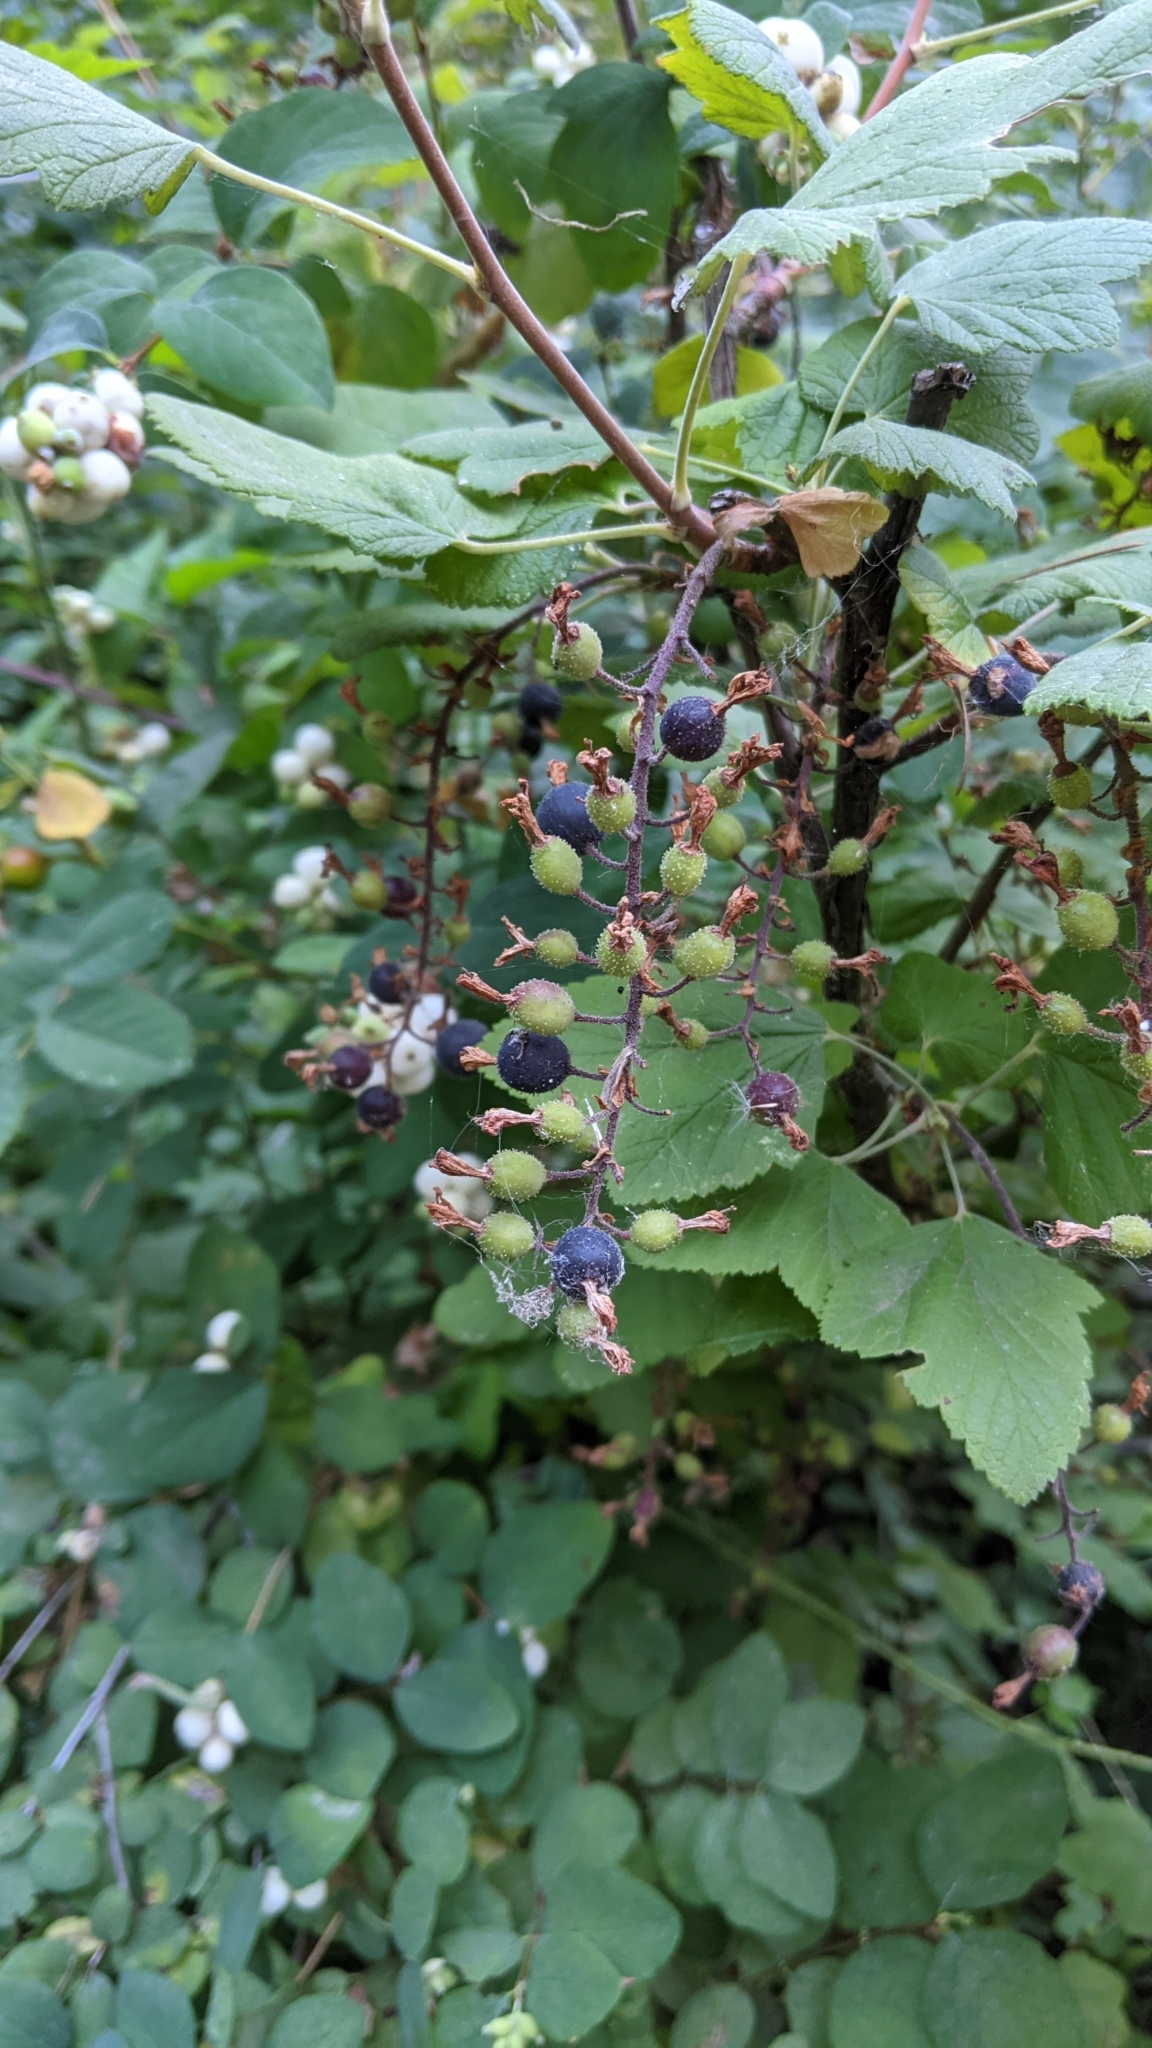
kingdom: Plantae
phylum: Tracheophyta
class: Magnoliopsida
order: Saxifragales
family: Grossulariaceae
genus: Ribes
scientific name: Ribes sanguineum
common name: Flowering currant
